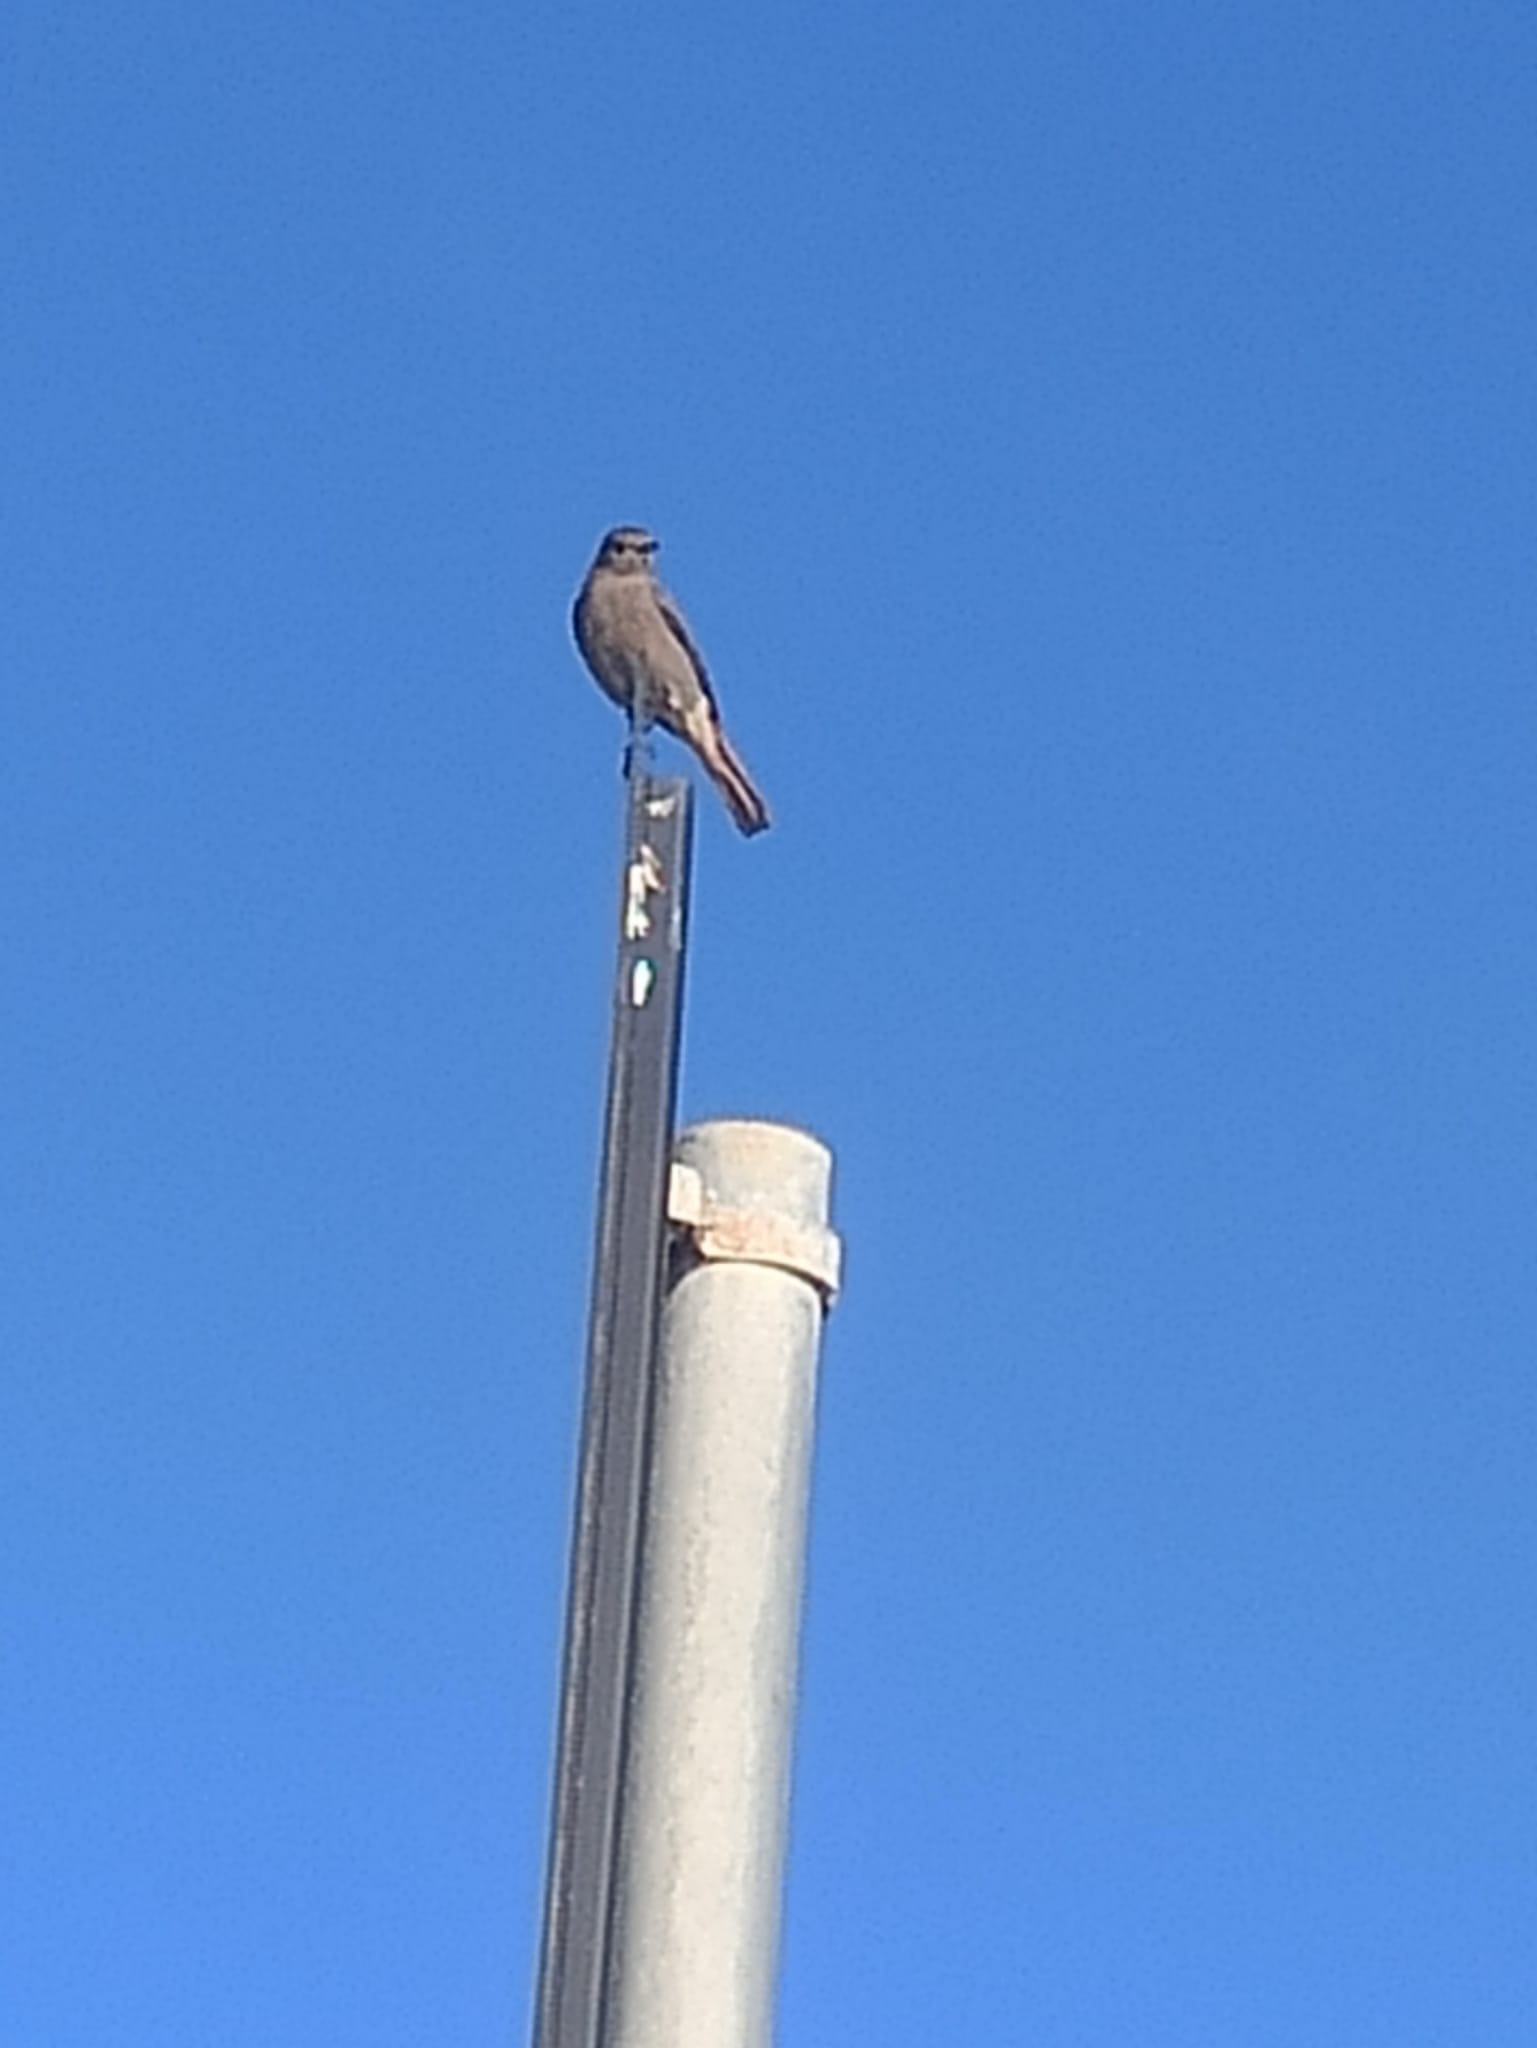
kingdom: Animalia
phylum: Chordata
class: Aves
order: Passeriformes
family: Muscicapidae
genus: Phoenicurus
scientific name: Phoenicurus ochruros
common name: Black redstart
